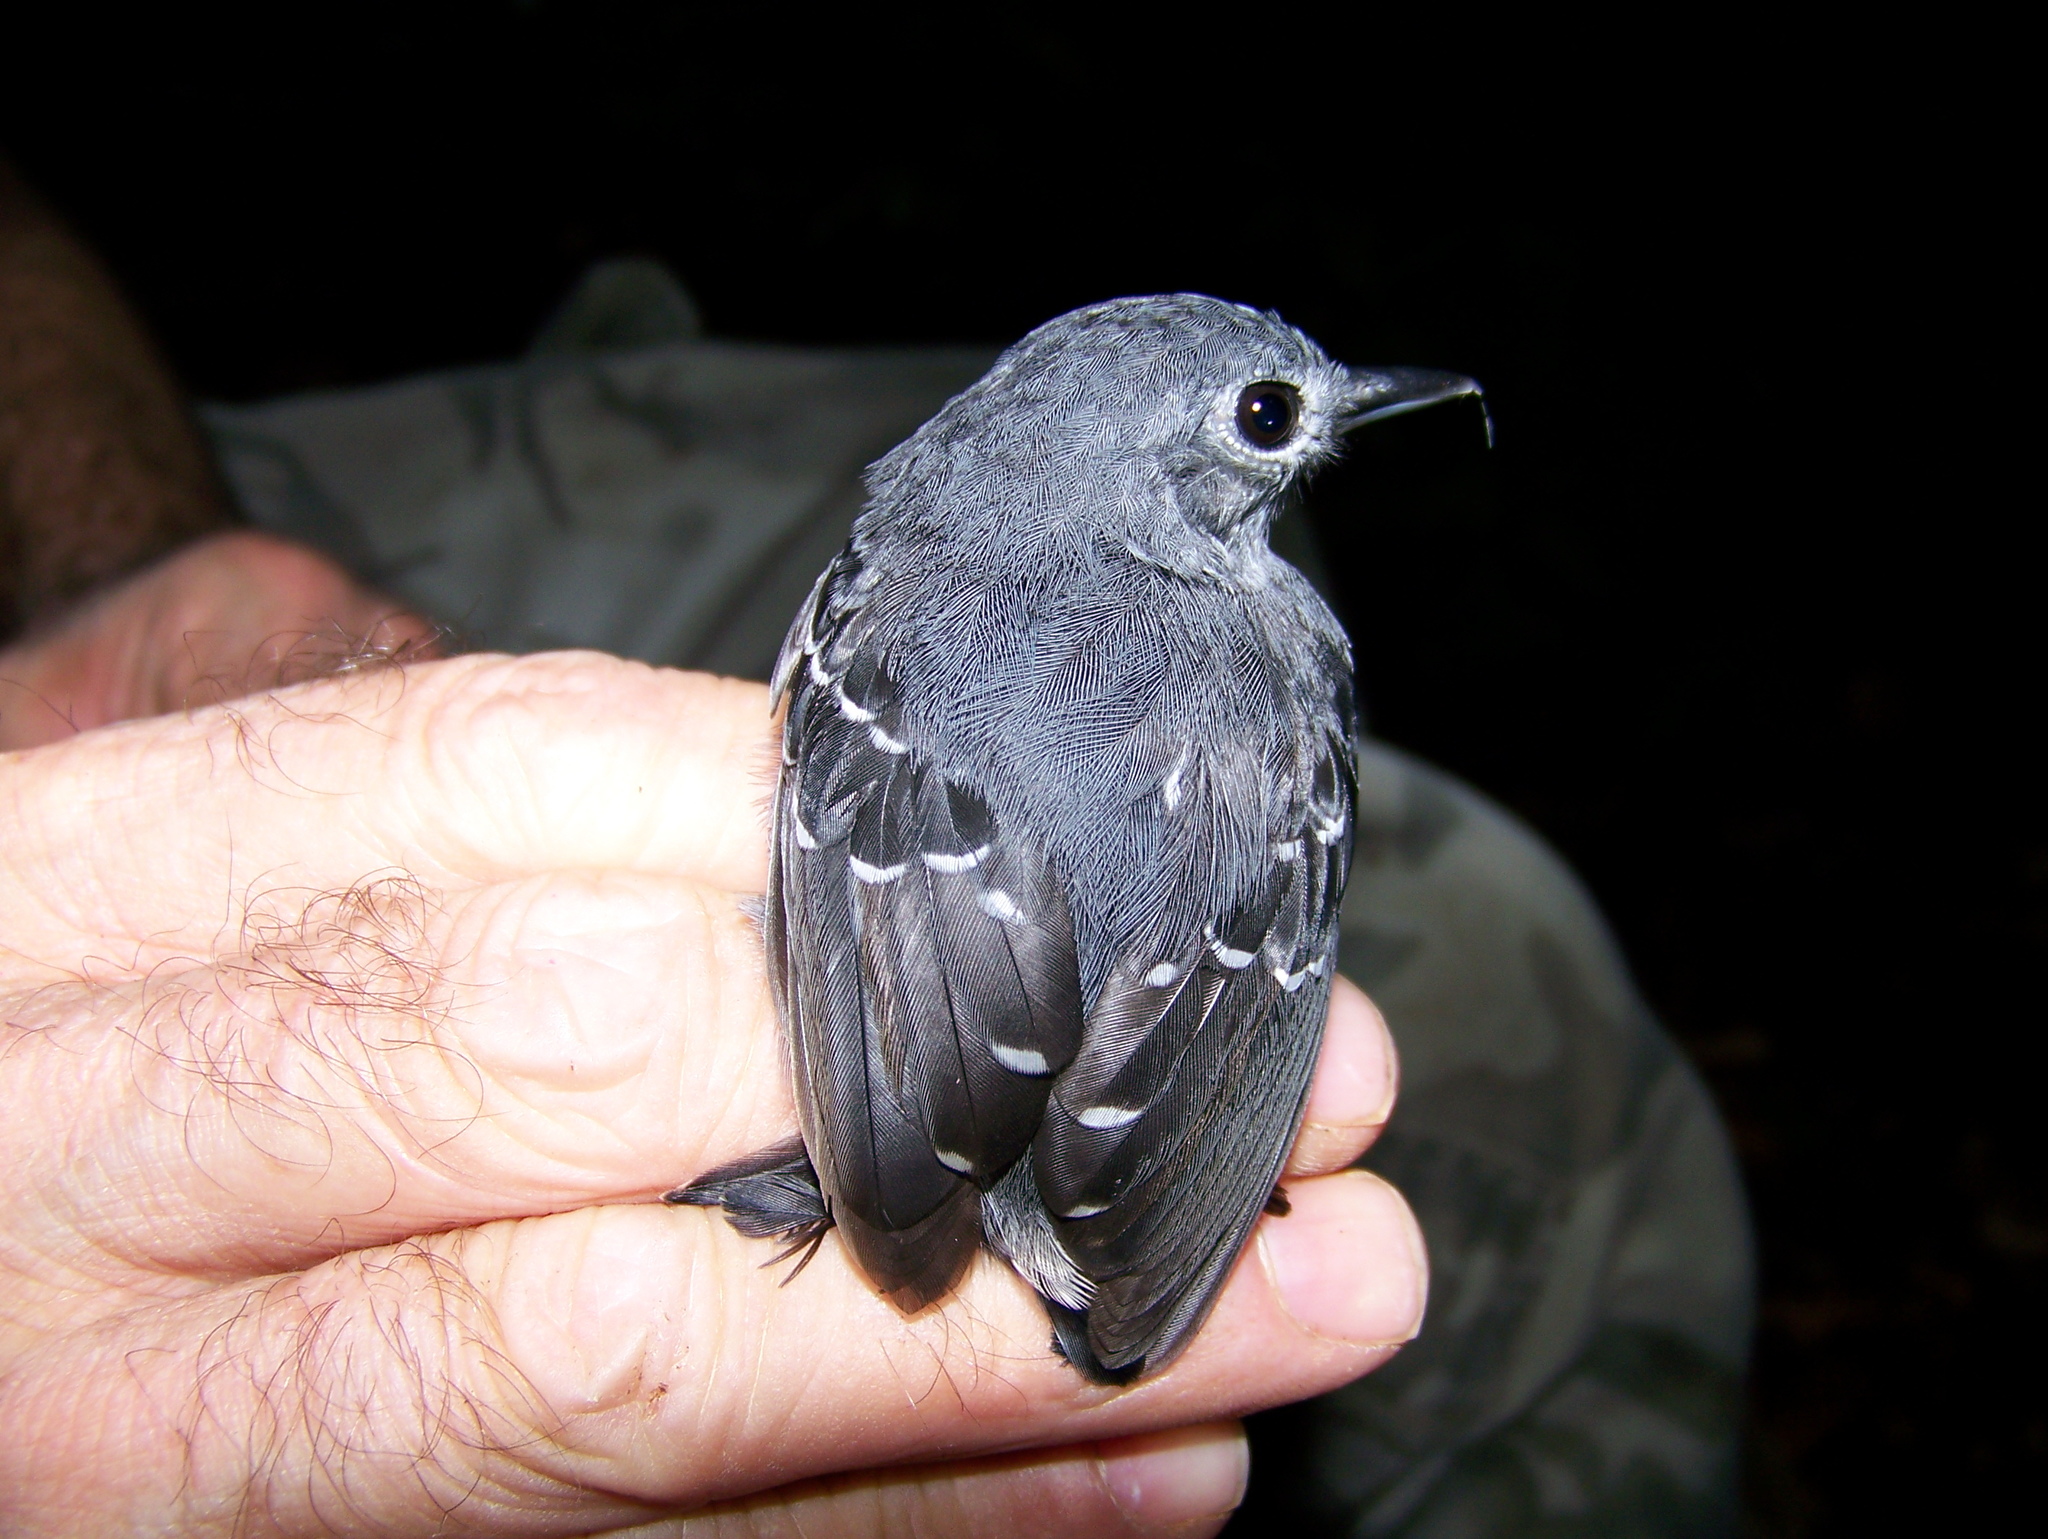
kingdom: Animalia
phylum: Chordata
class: Aves
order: Passeriformes
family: Thamnophilidae
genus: Isleria
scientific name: Isleria hauxwelli
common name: Plain-throated antwren
